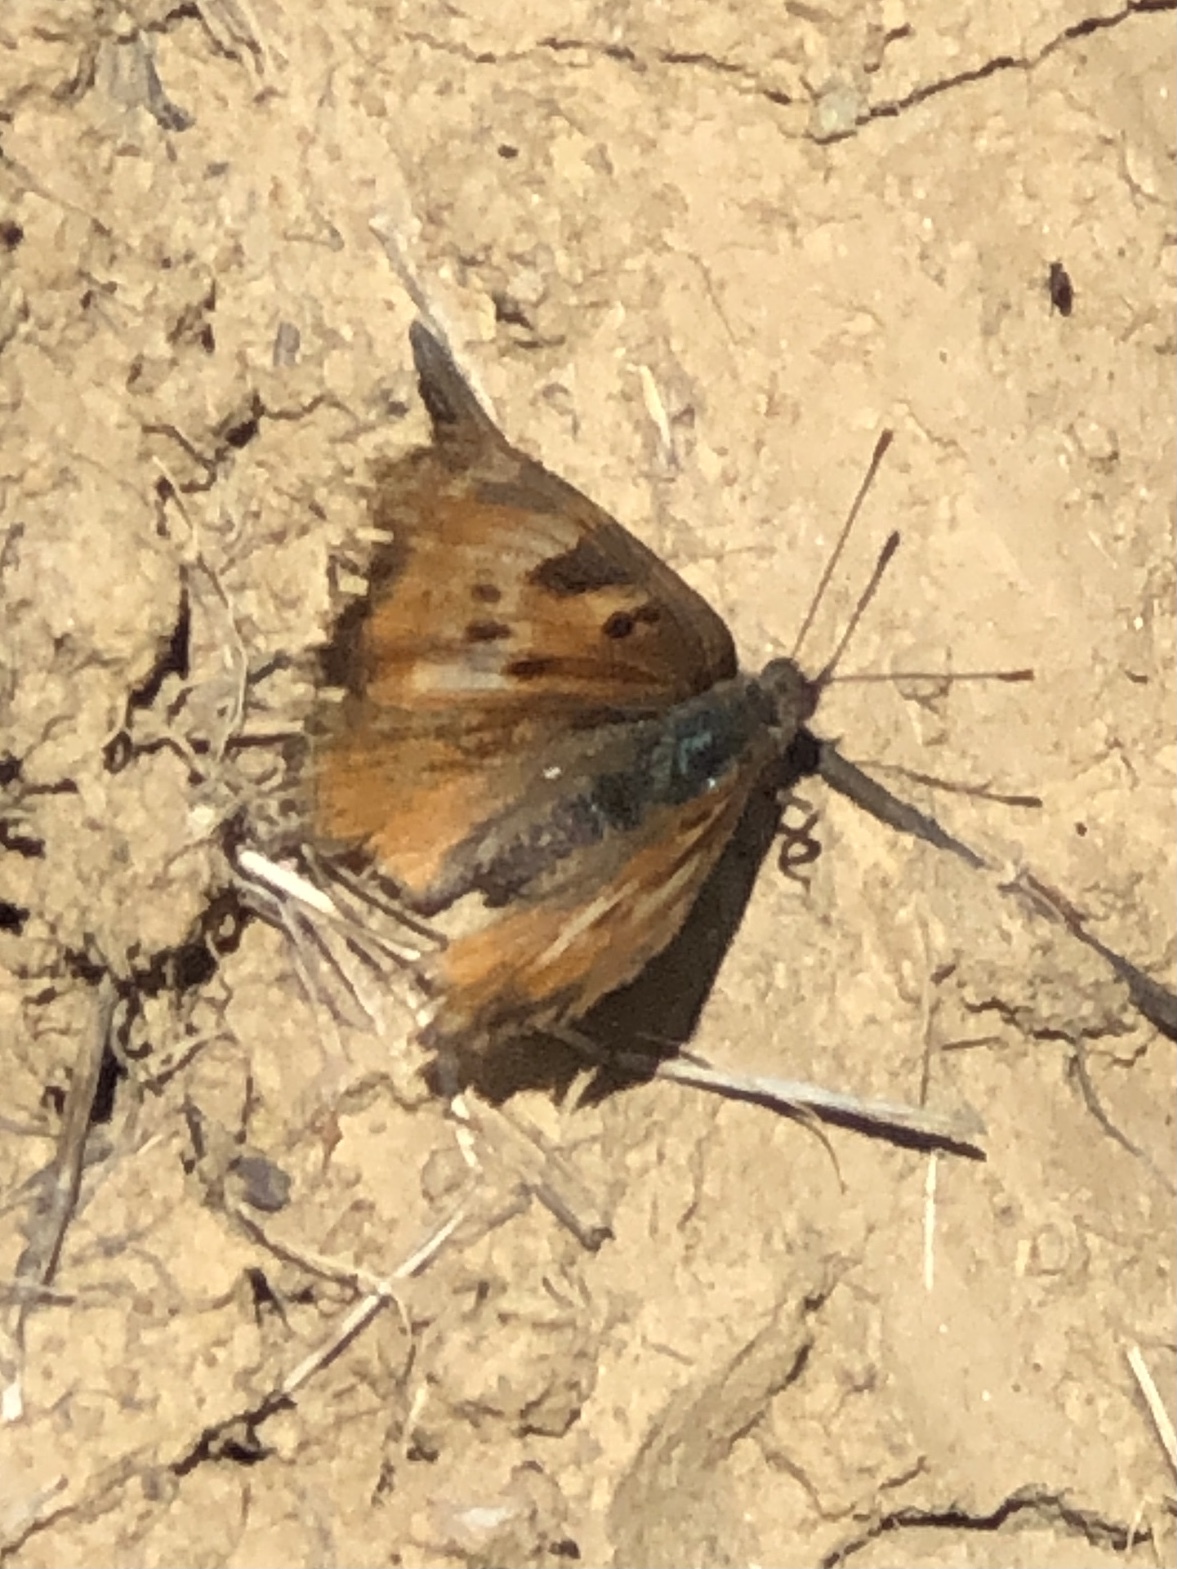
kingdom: Animalia
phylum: Arthropoda
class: Insecta
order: Lepidoptera
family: Nymphalidae
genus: Nymphalis
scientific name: Nymphalis californica
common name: California tortoiseshell
